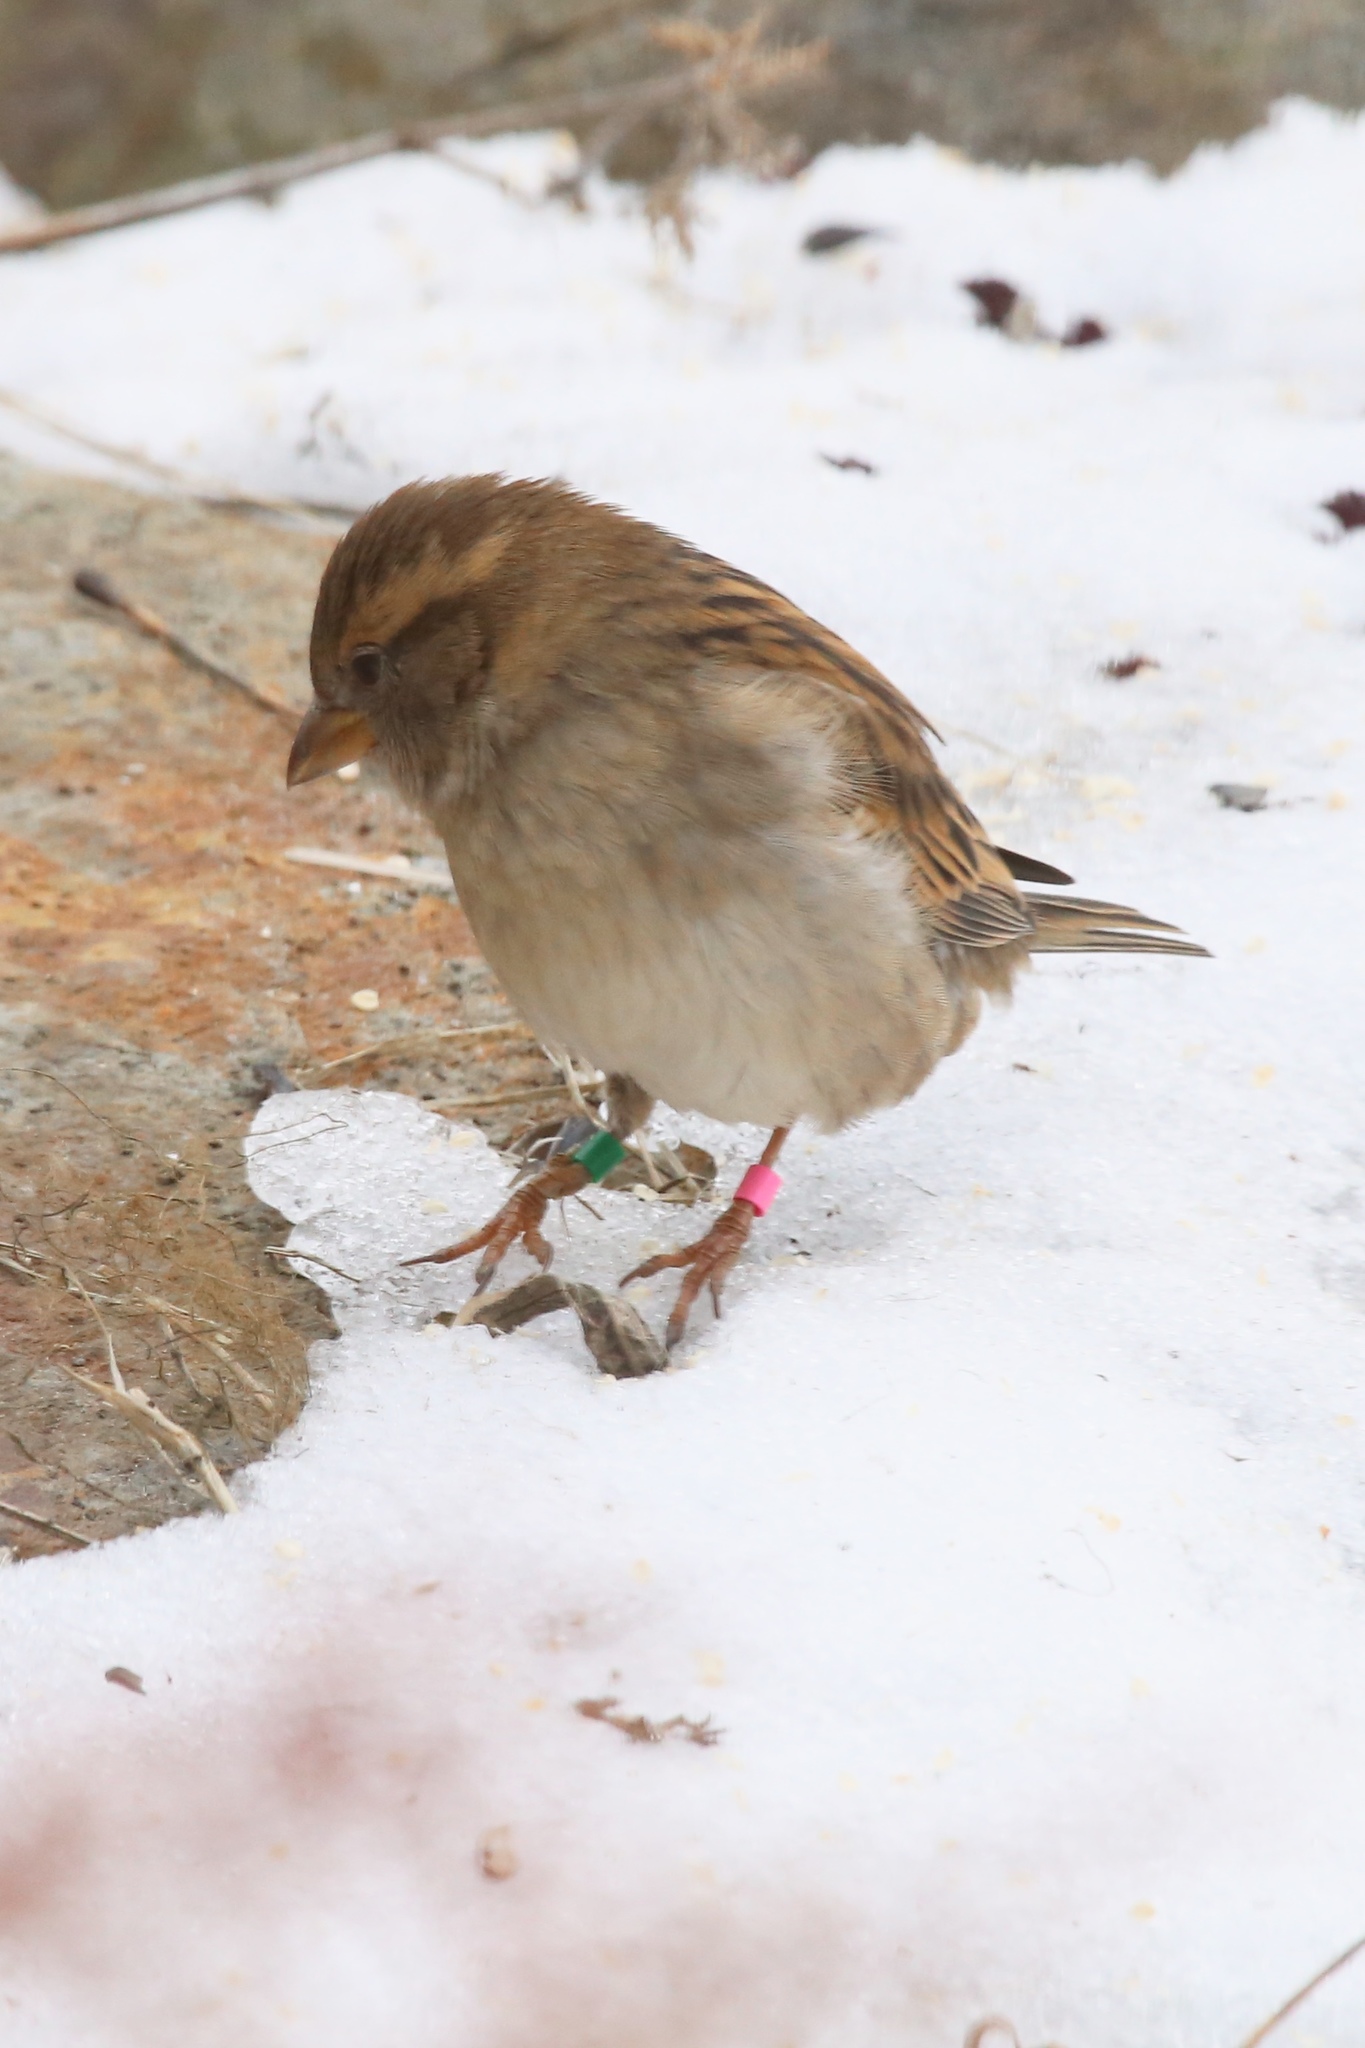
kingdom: Animalia
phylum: Chordata
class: Aves
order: Passeriformes
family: Passeridae
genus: Passer
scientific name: Passer domesticus
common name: House sparrow
